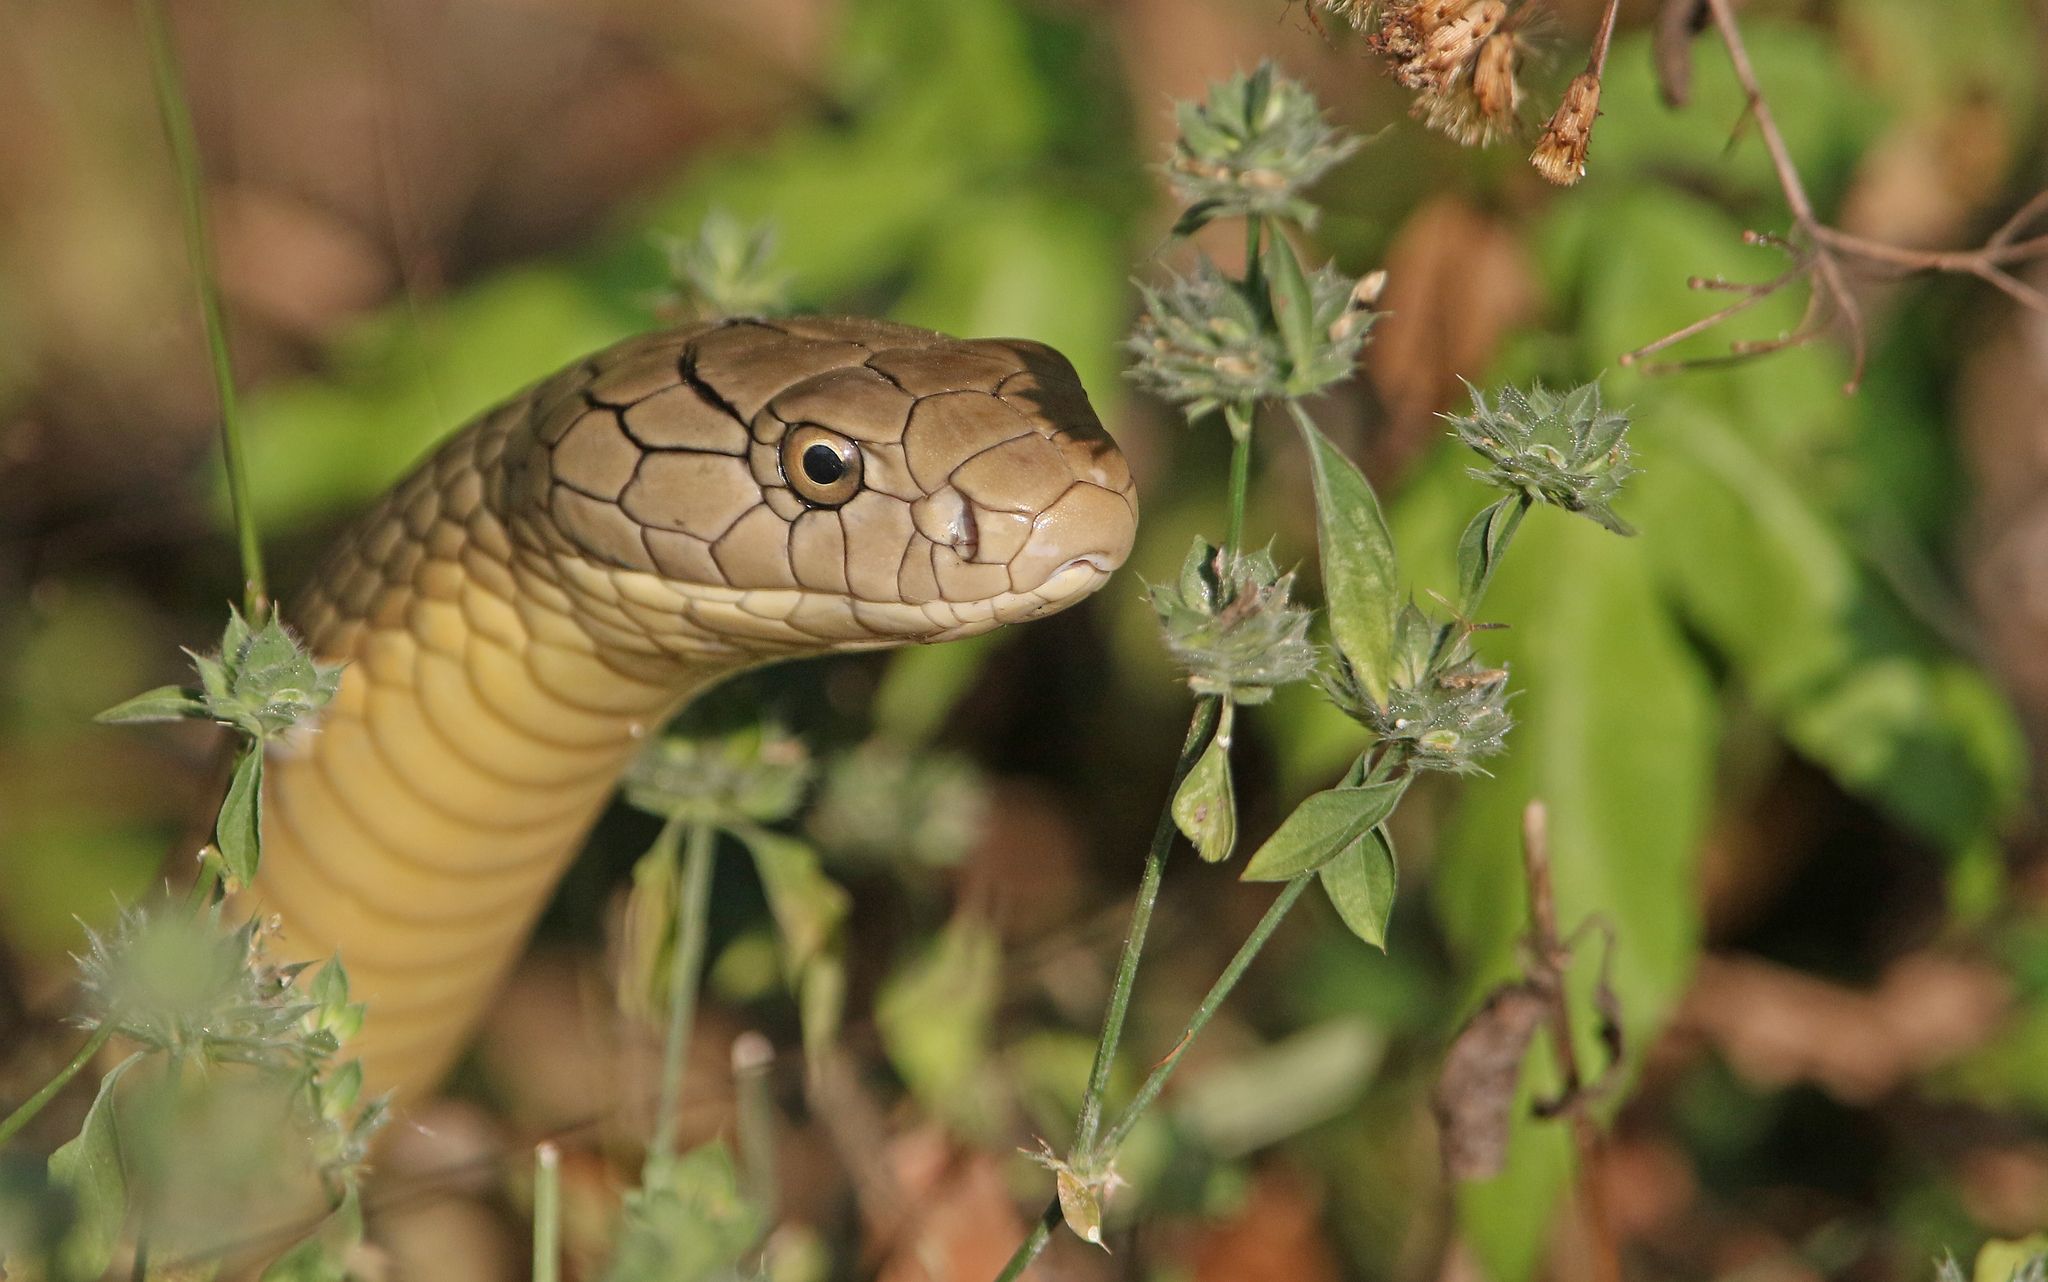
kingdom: Animalia
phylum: Chordata
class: Squamata
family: Elapidae
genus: Ophiophagus
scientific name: Ophiophagus hannah
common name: Hamadryad
